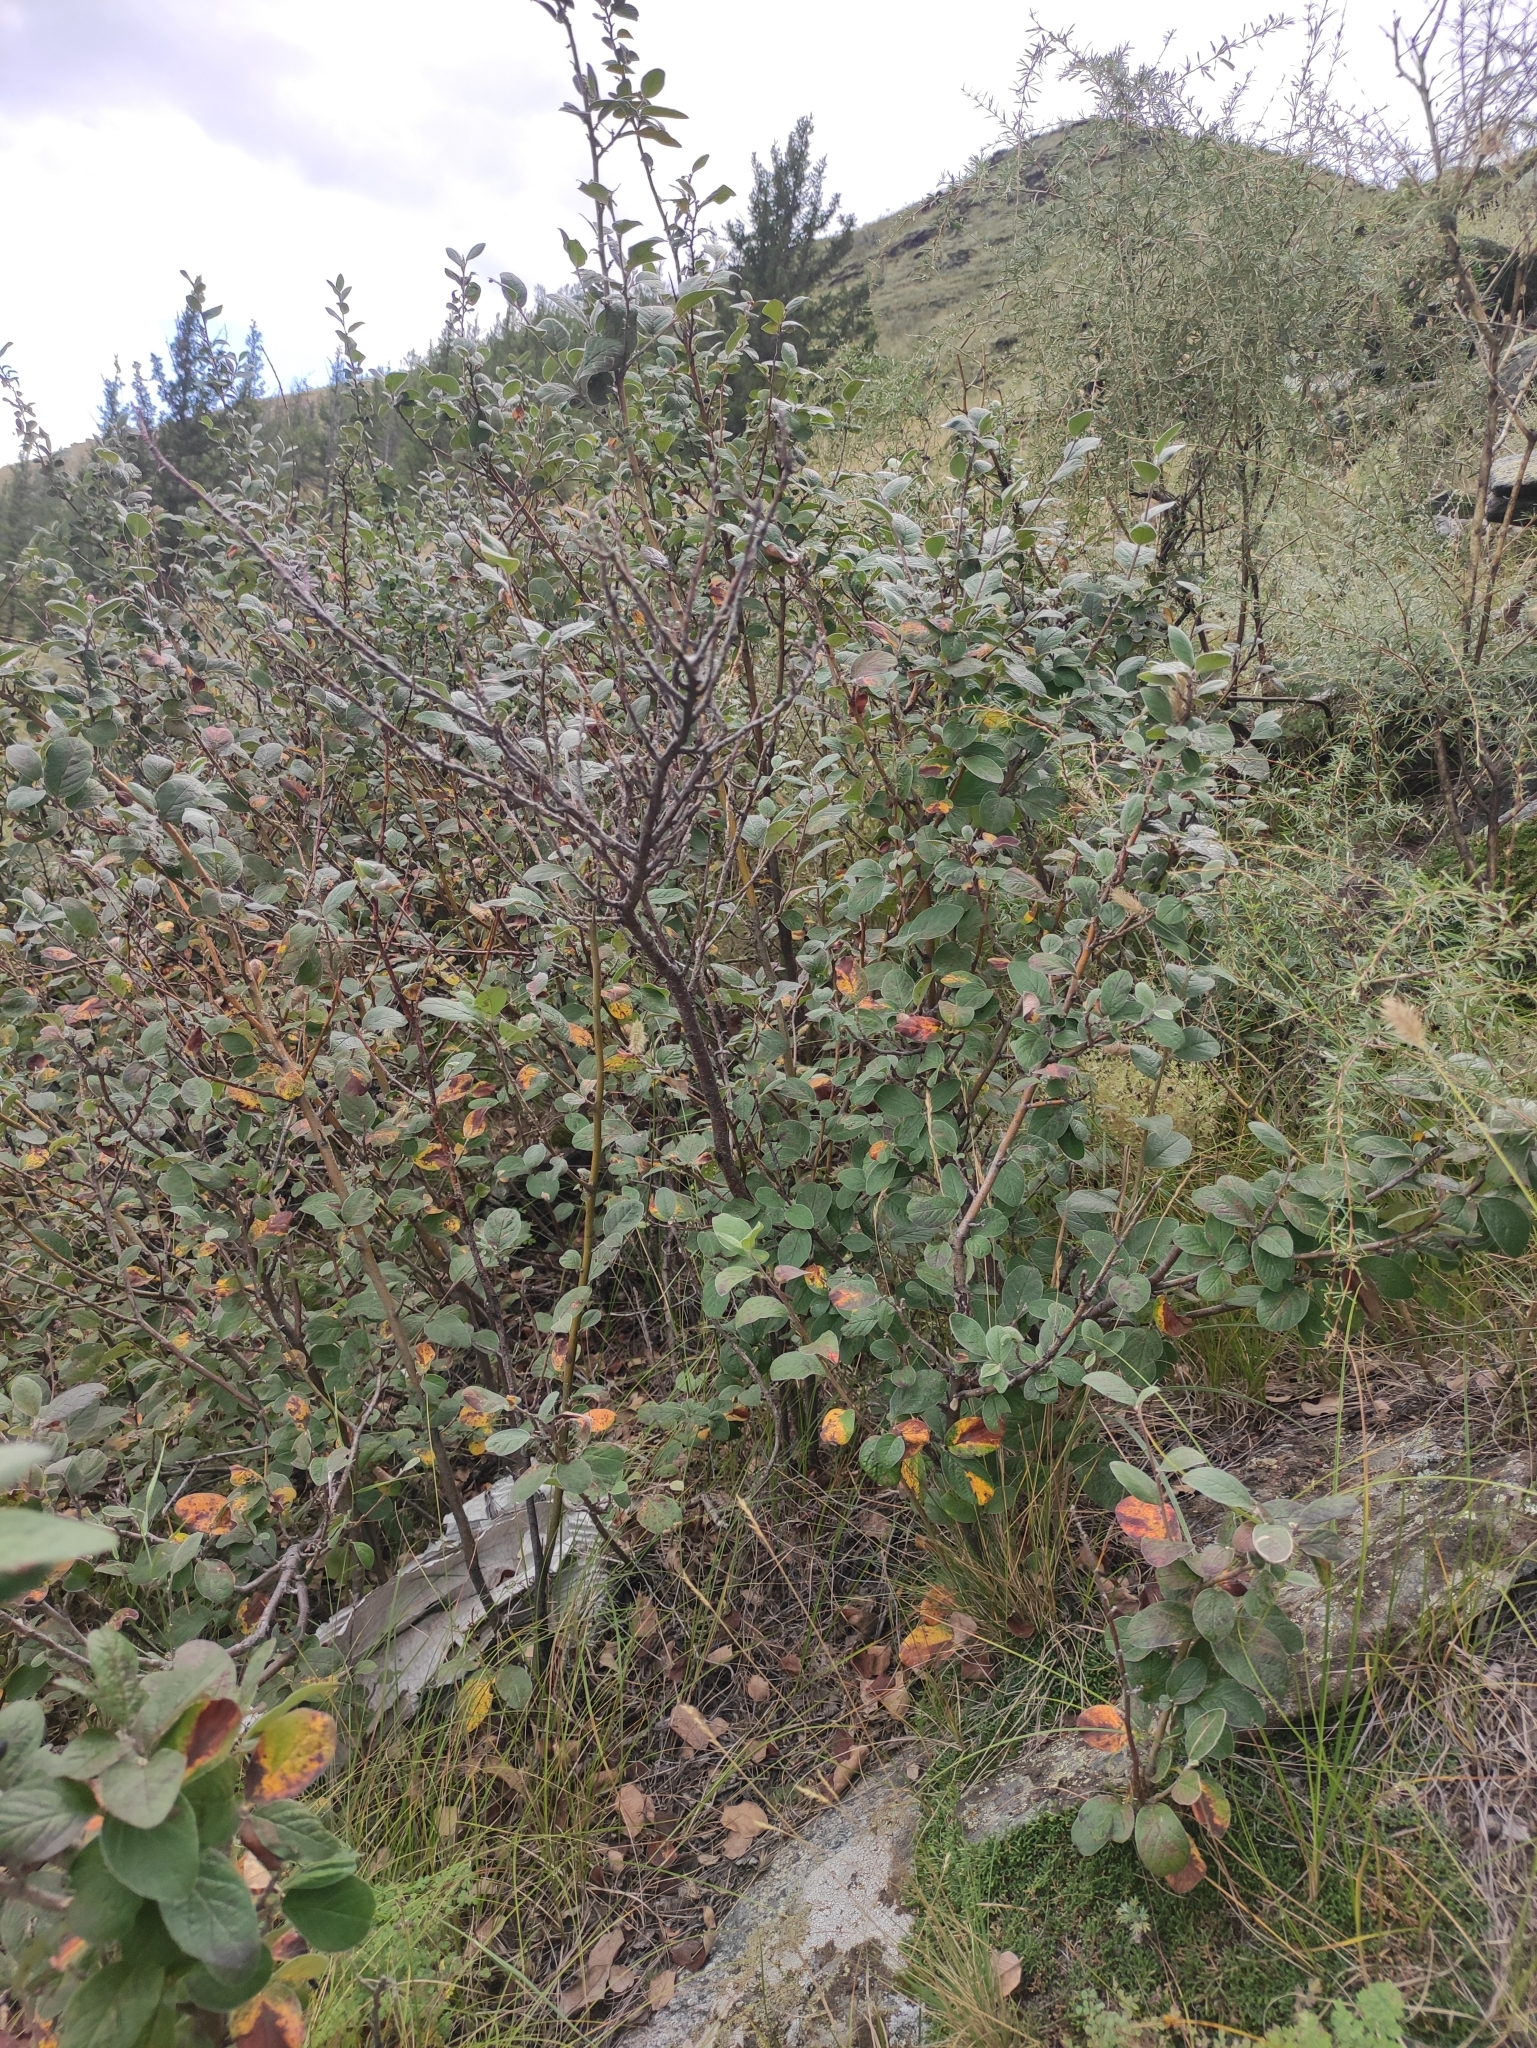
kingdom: Plantae
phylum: Tracheophyta
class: Magnoliopsida
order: Rosales
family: Rosaceae
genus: Cotoneaster
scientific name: Cotoneaster melanocarpus
